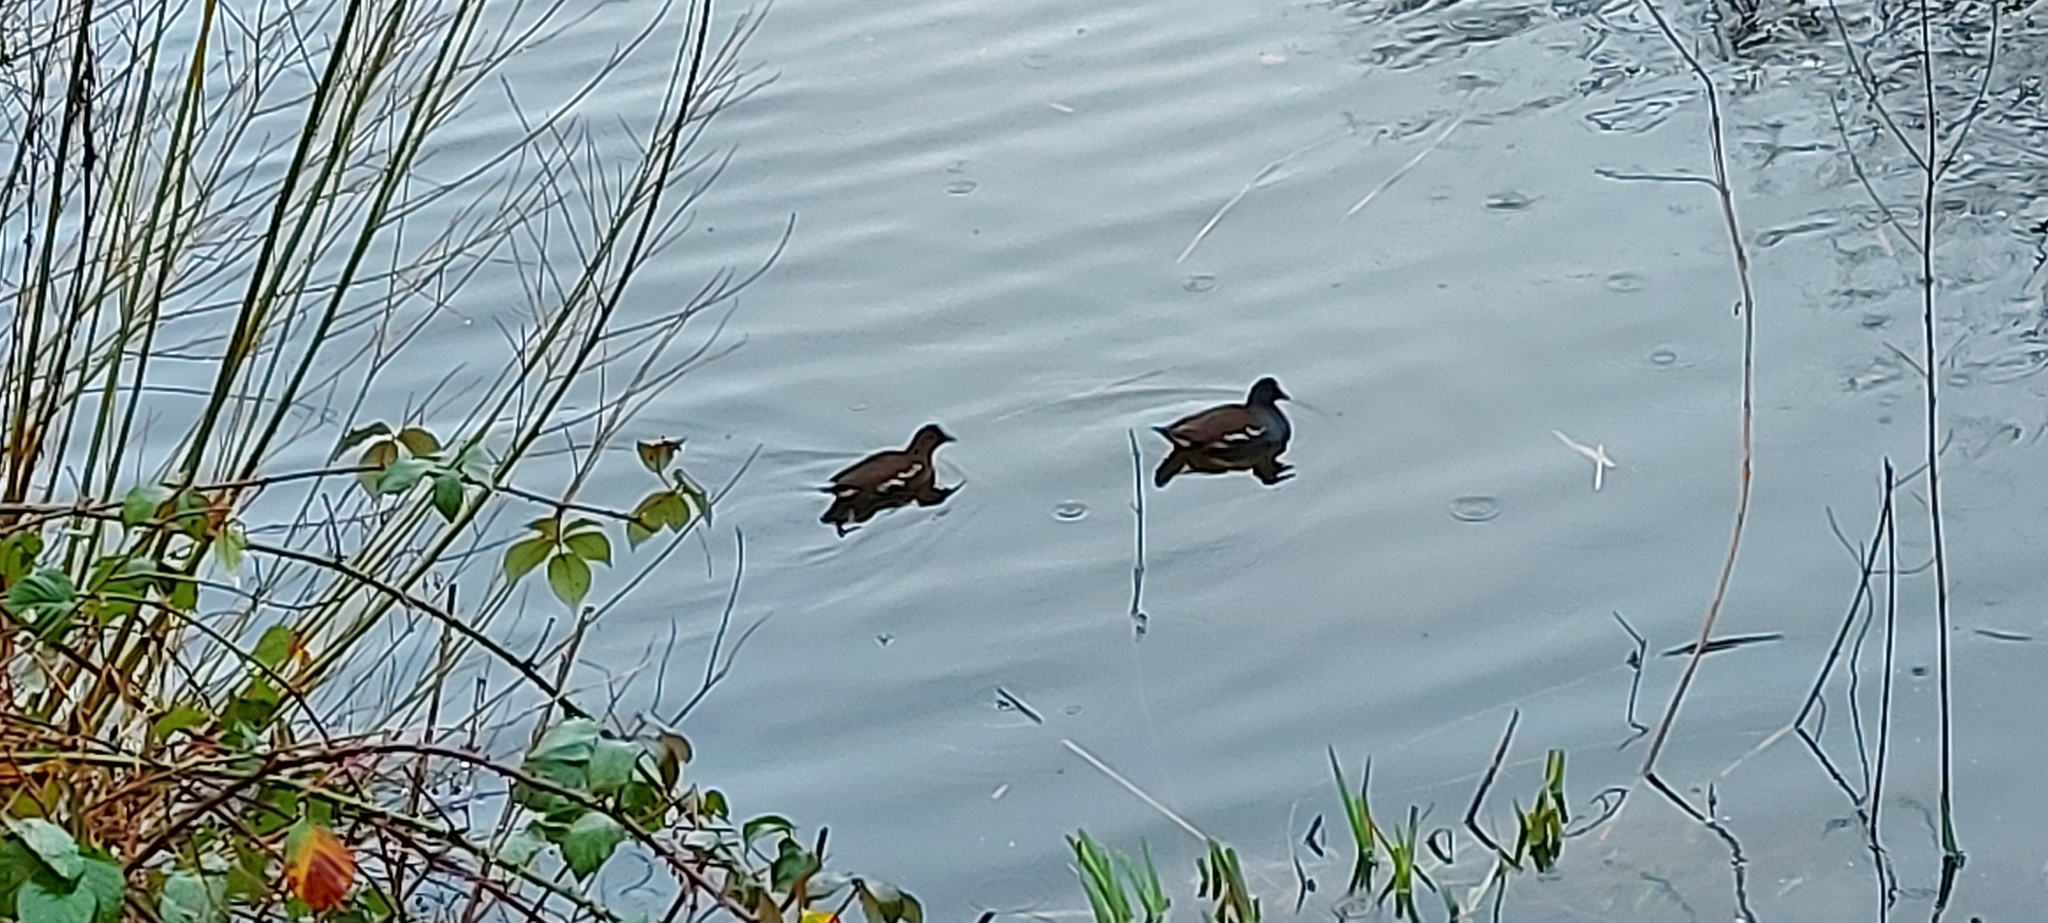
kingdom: Animalia
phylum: Chordata
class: Aves
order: Gruiformes
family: Rallidae
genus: Gallinula
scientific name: Gallinula chloropus
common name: Common moorhen
